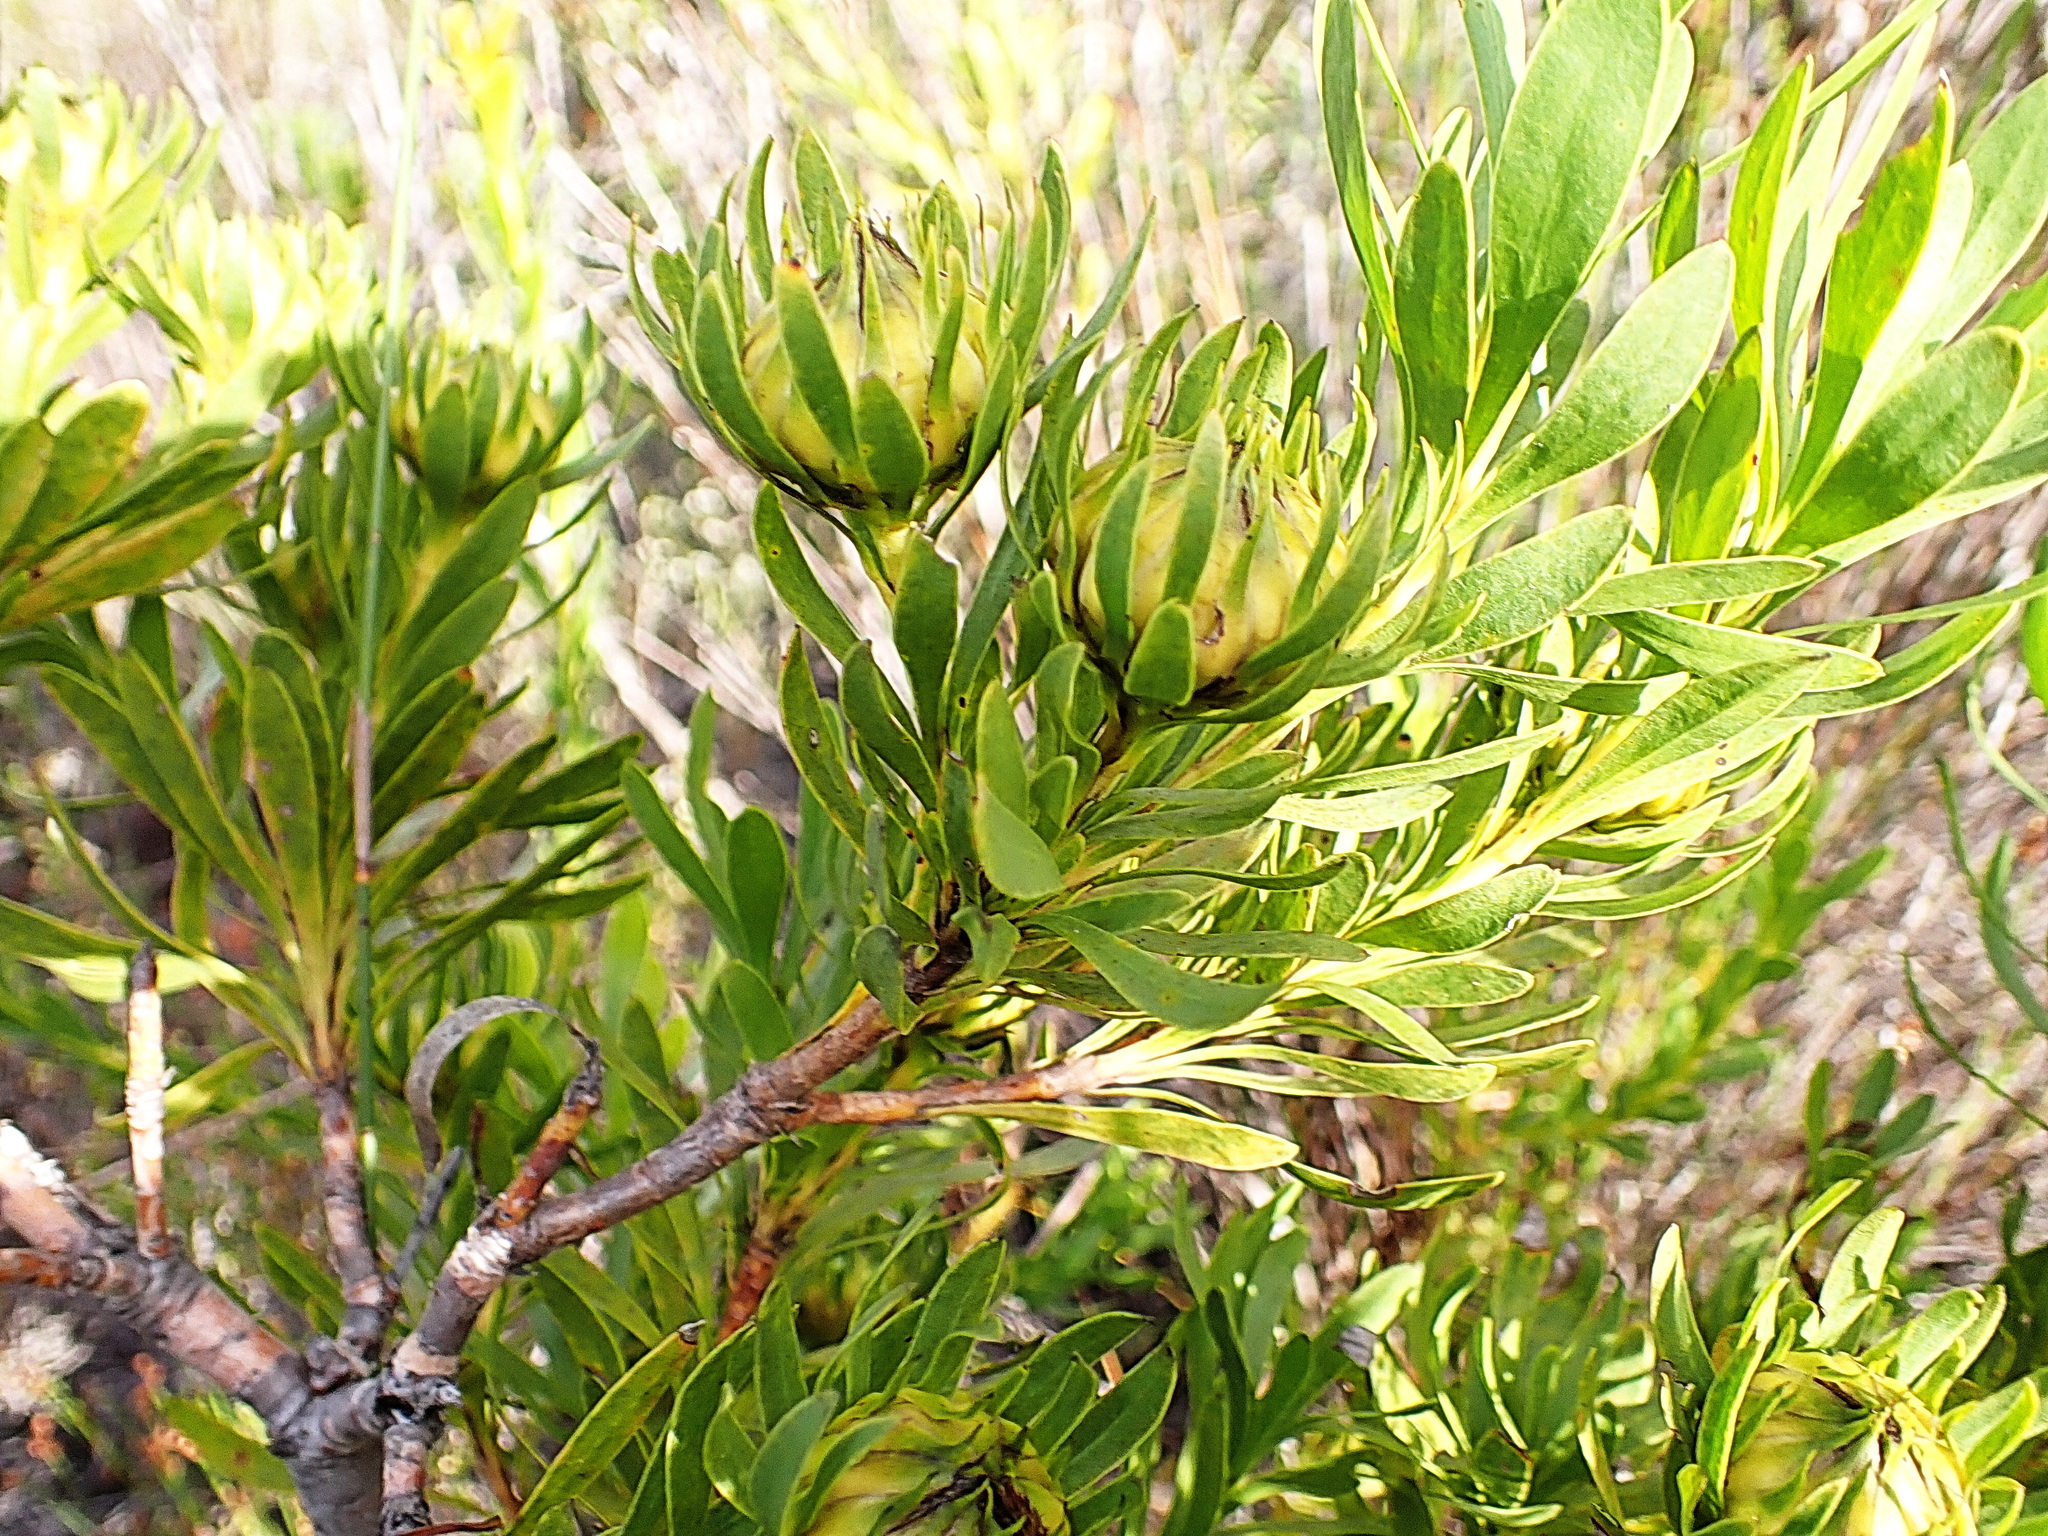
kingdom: Plantae
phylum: Tracheophyta
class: Magnoliopsida
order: Proteales
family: Proteaceae
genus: Aulax
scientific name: Aulax umbellata
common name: Broad-leaf featherbush
